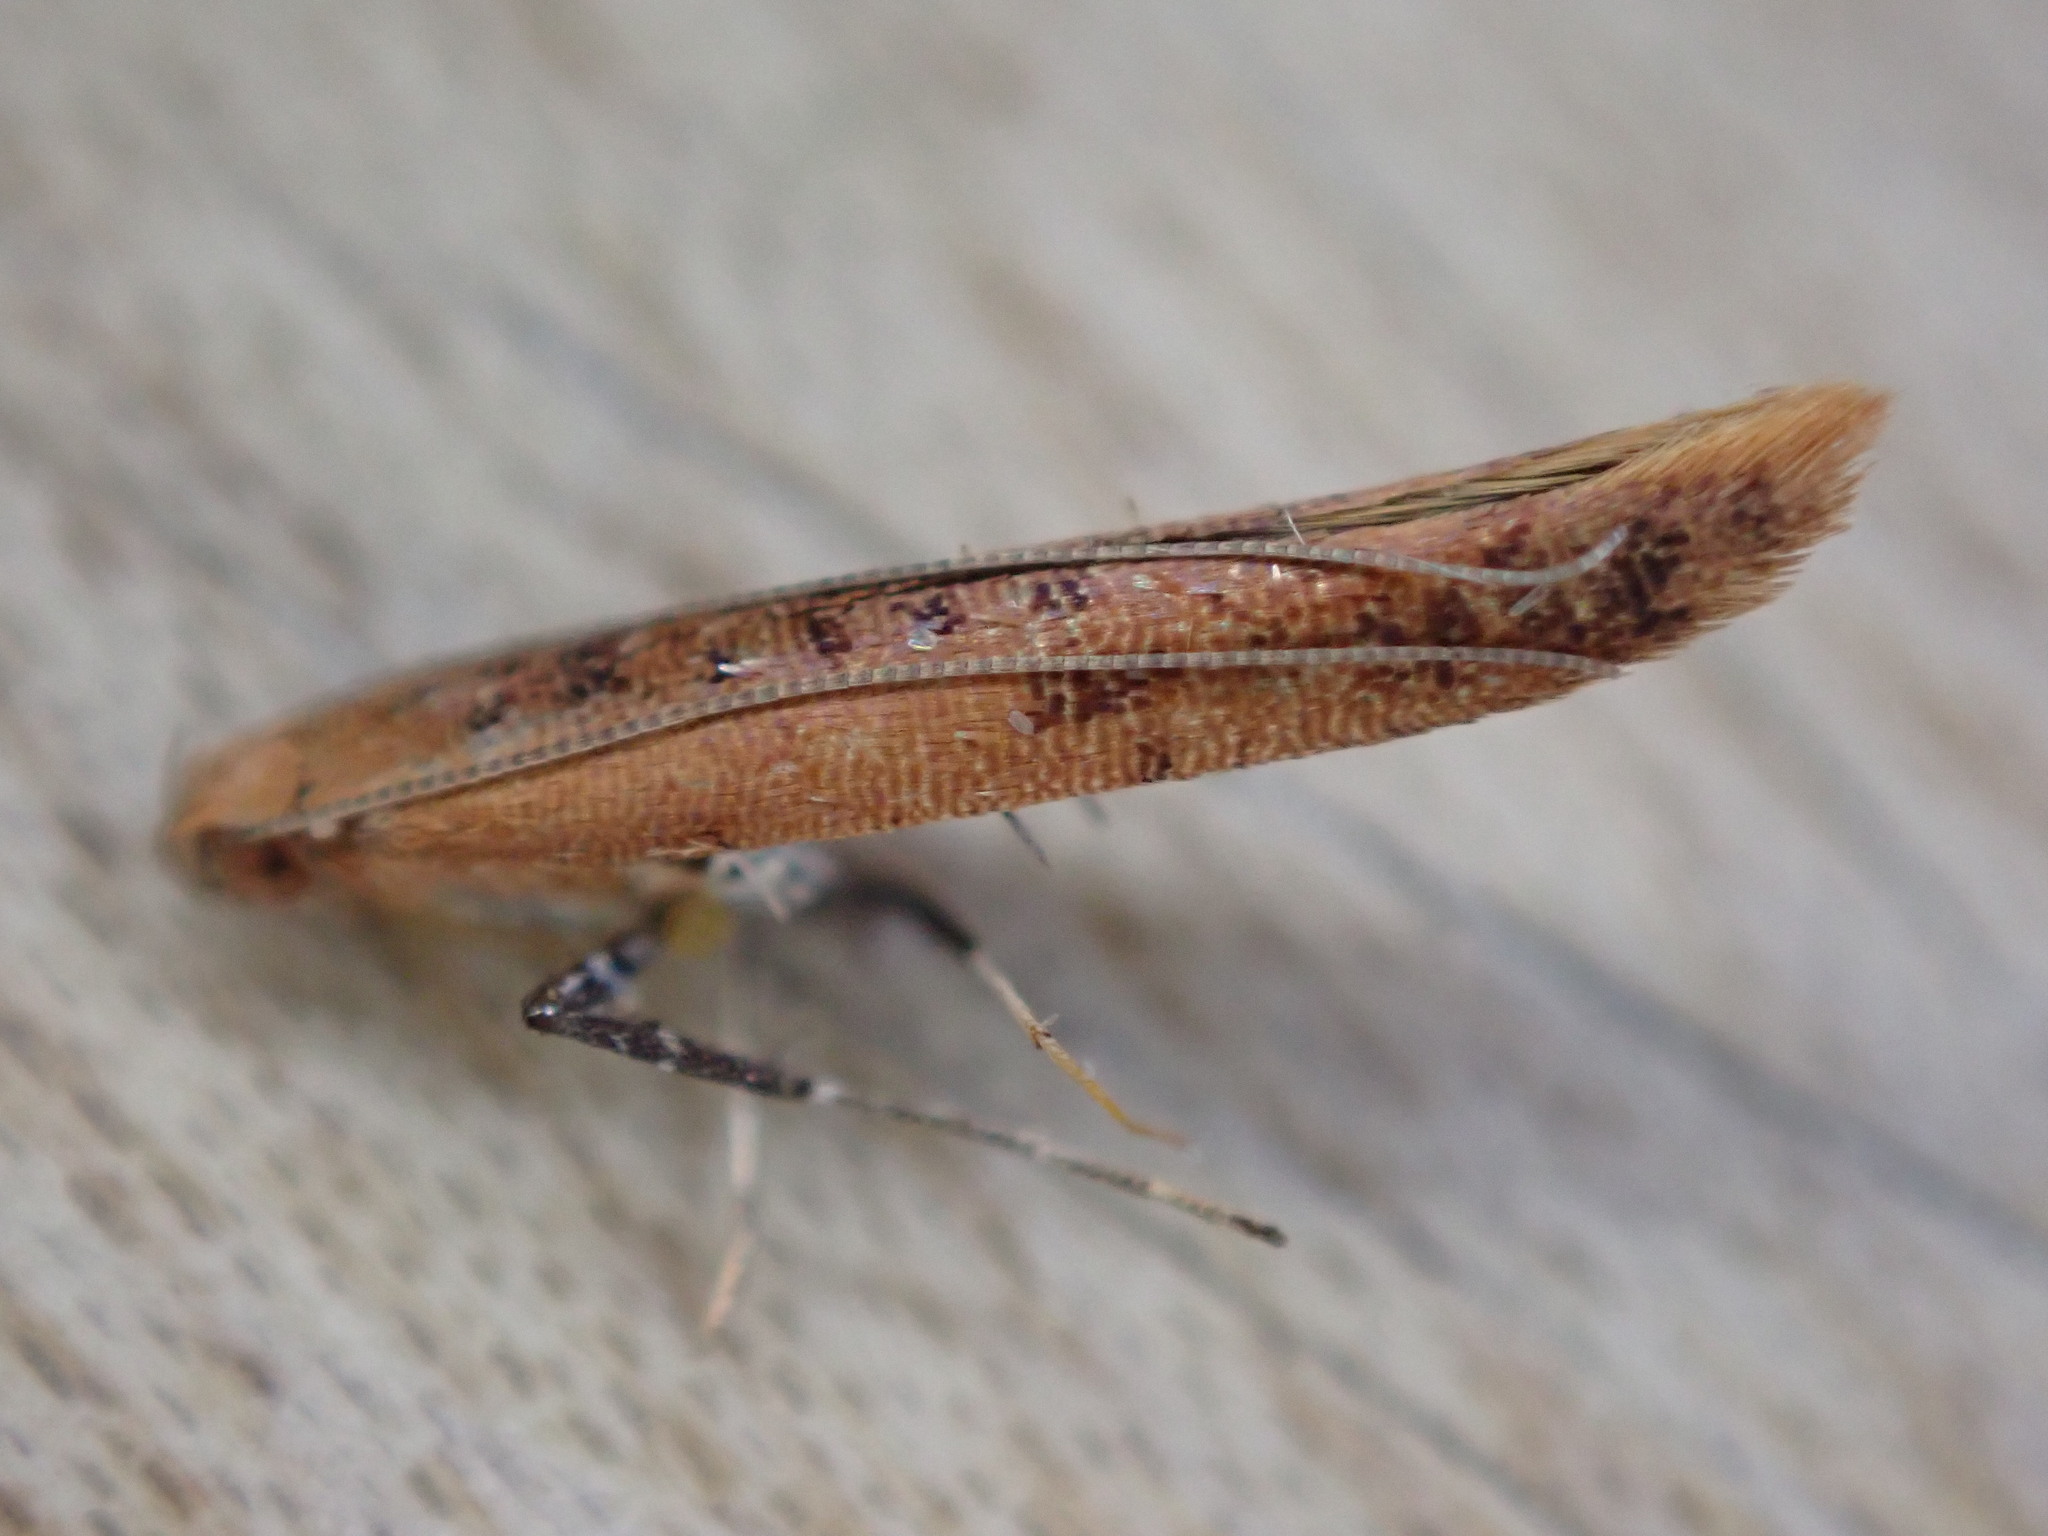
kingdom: Animalia
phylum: Arthropoda
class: Insecta
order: Lepidoptera
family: Gracillariidae
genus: Caloptilia
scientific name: Caloptilia rufipennella
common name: Small red slender
